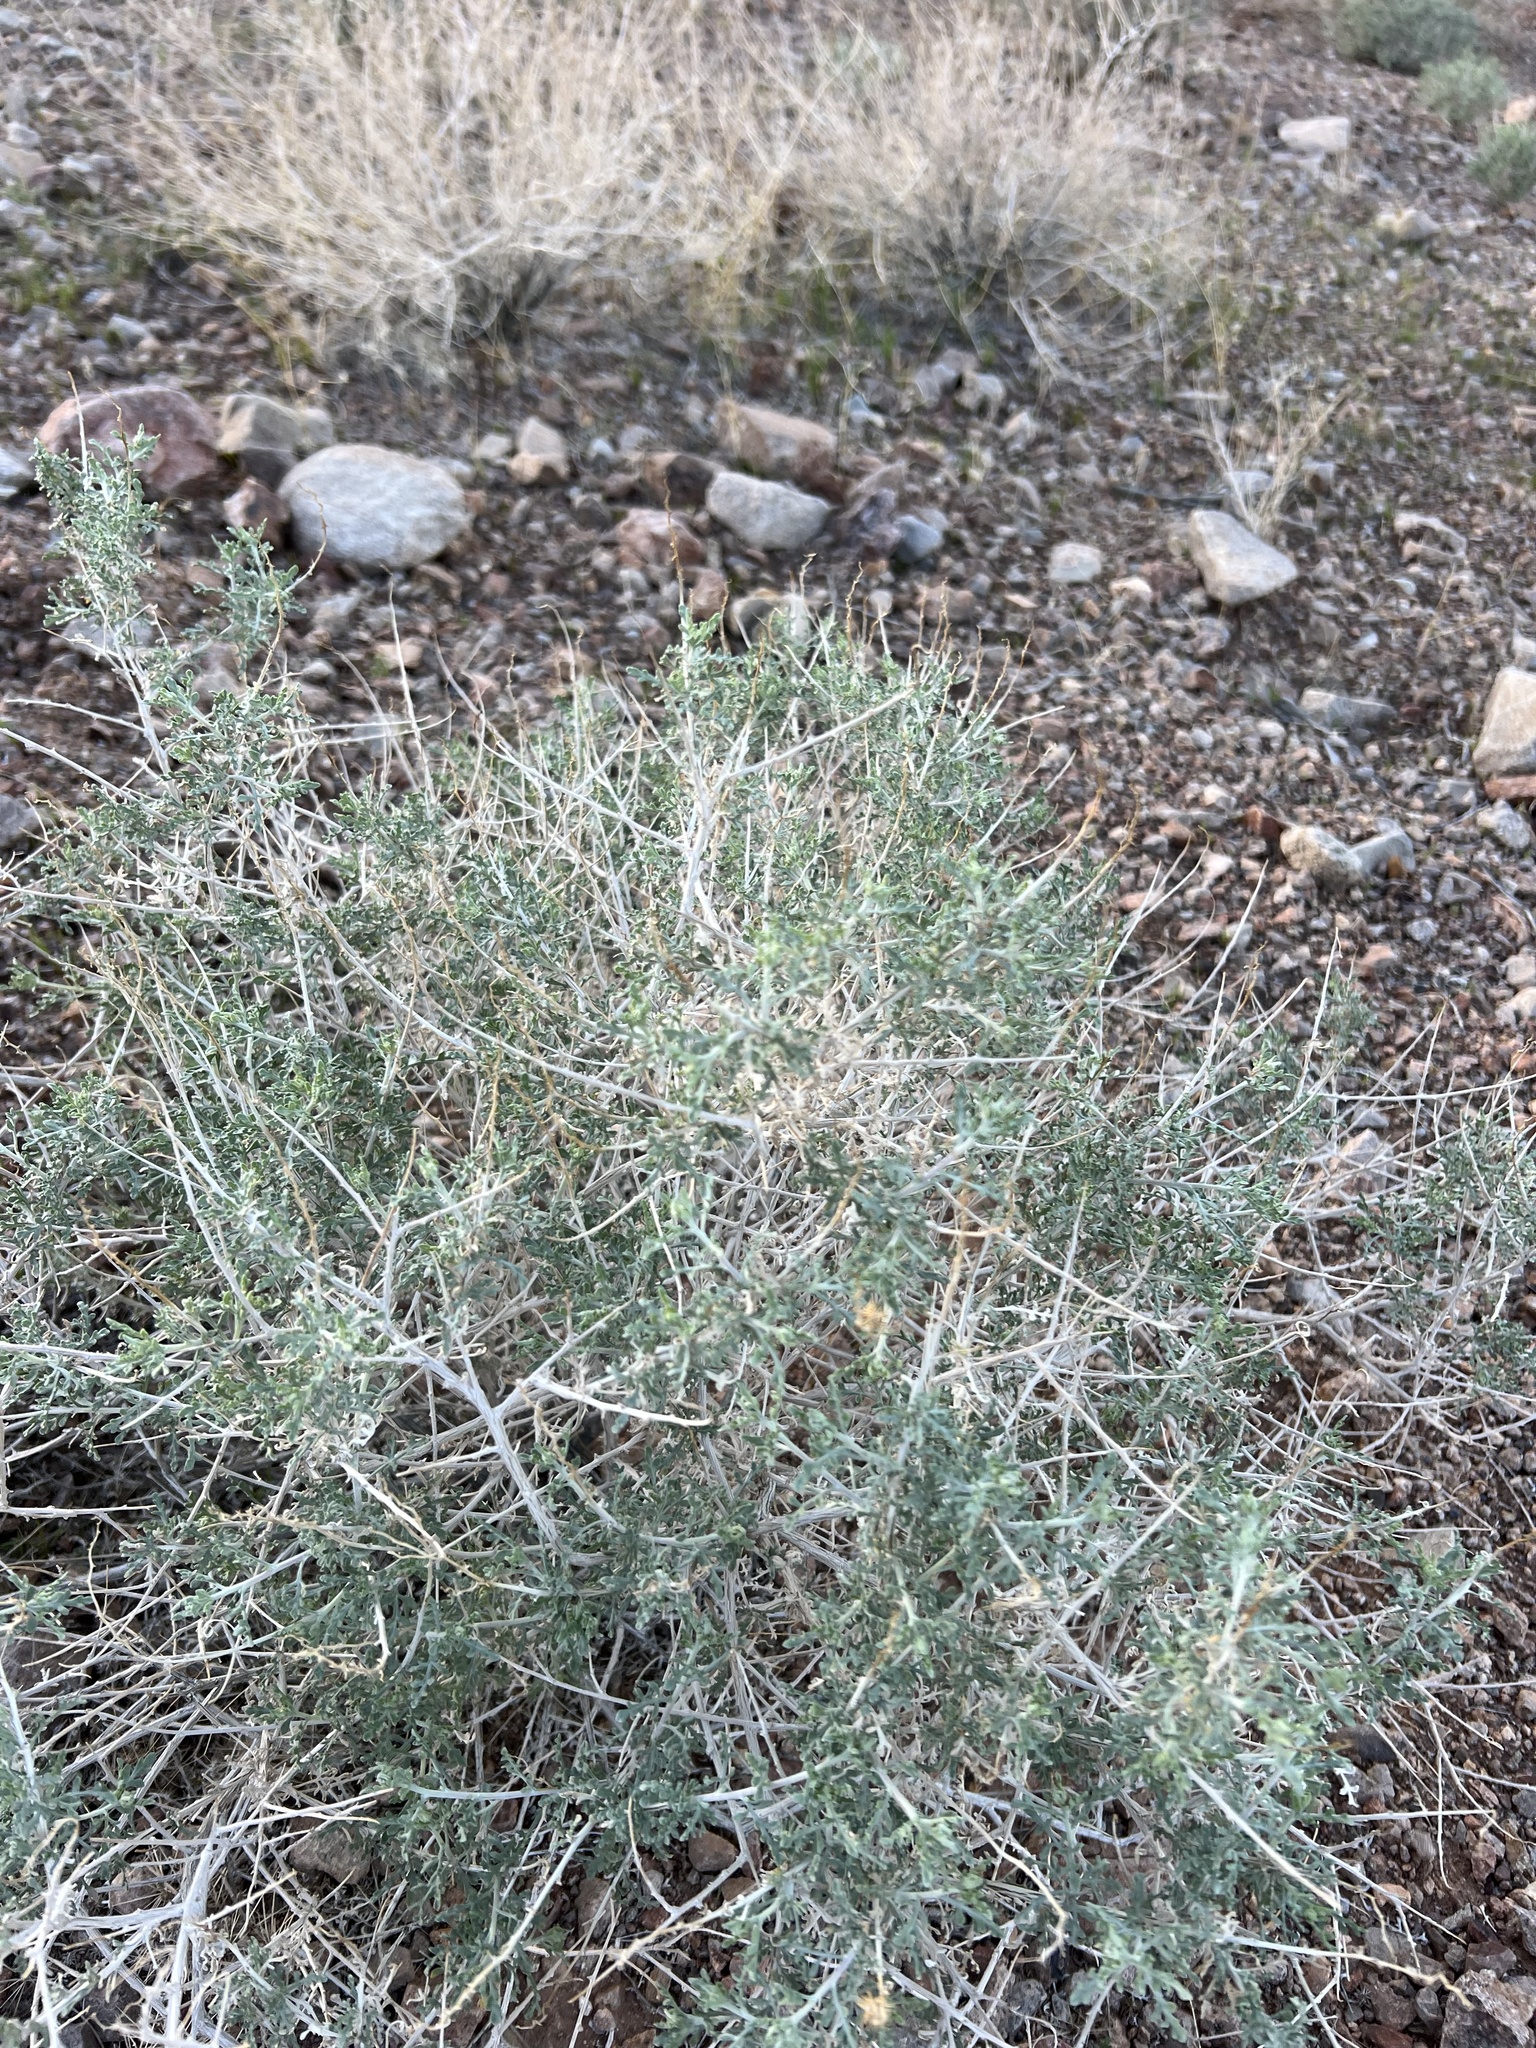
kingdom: Plantae
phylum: Tracheophyta
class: Magnoliopsida
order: Asterales
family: Asteraceae
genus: Ambrosia
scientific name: Ambrosia dumosa
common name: Bur-sage
